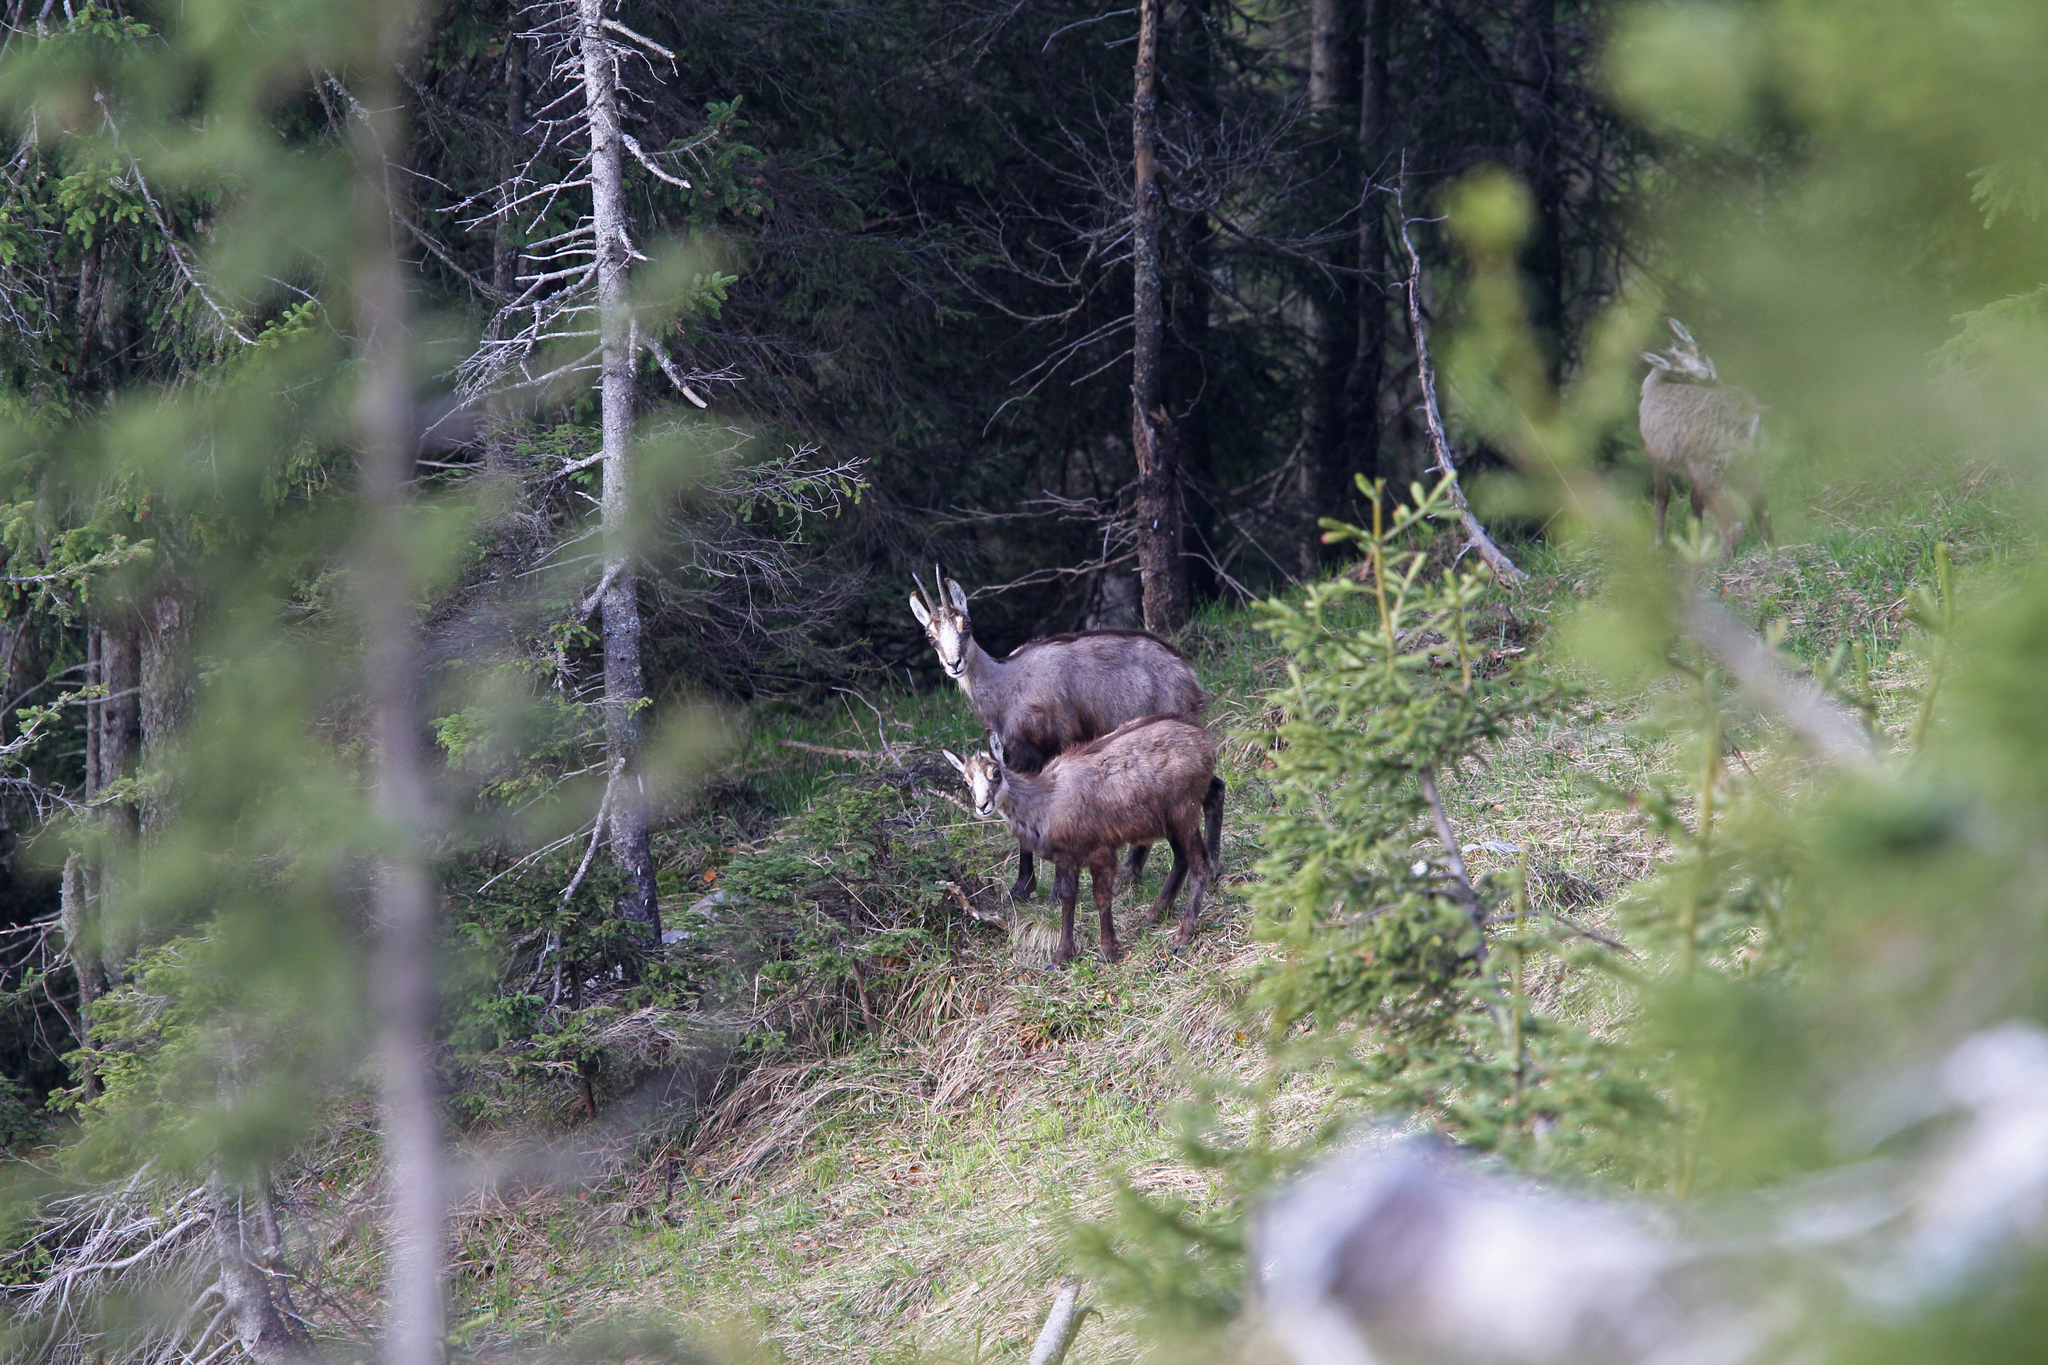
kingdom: Animalia
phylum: Chordata
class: Mammalia
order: Artiodactyla
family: Bovidae
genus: Rupicapra
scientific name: Rupicapra rupicapra
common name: Chamois
